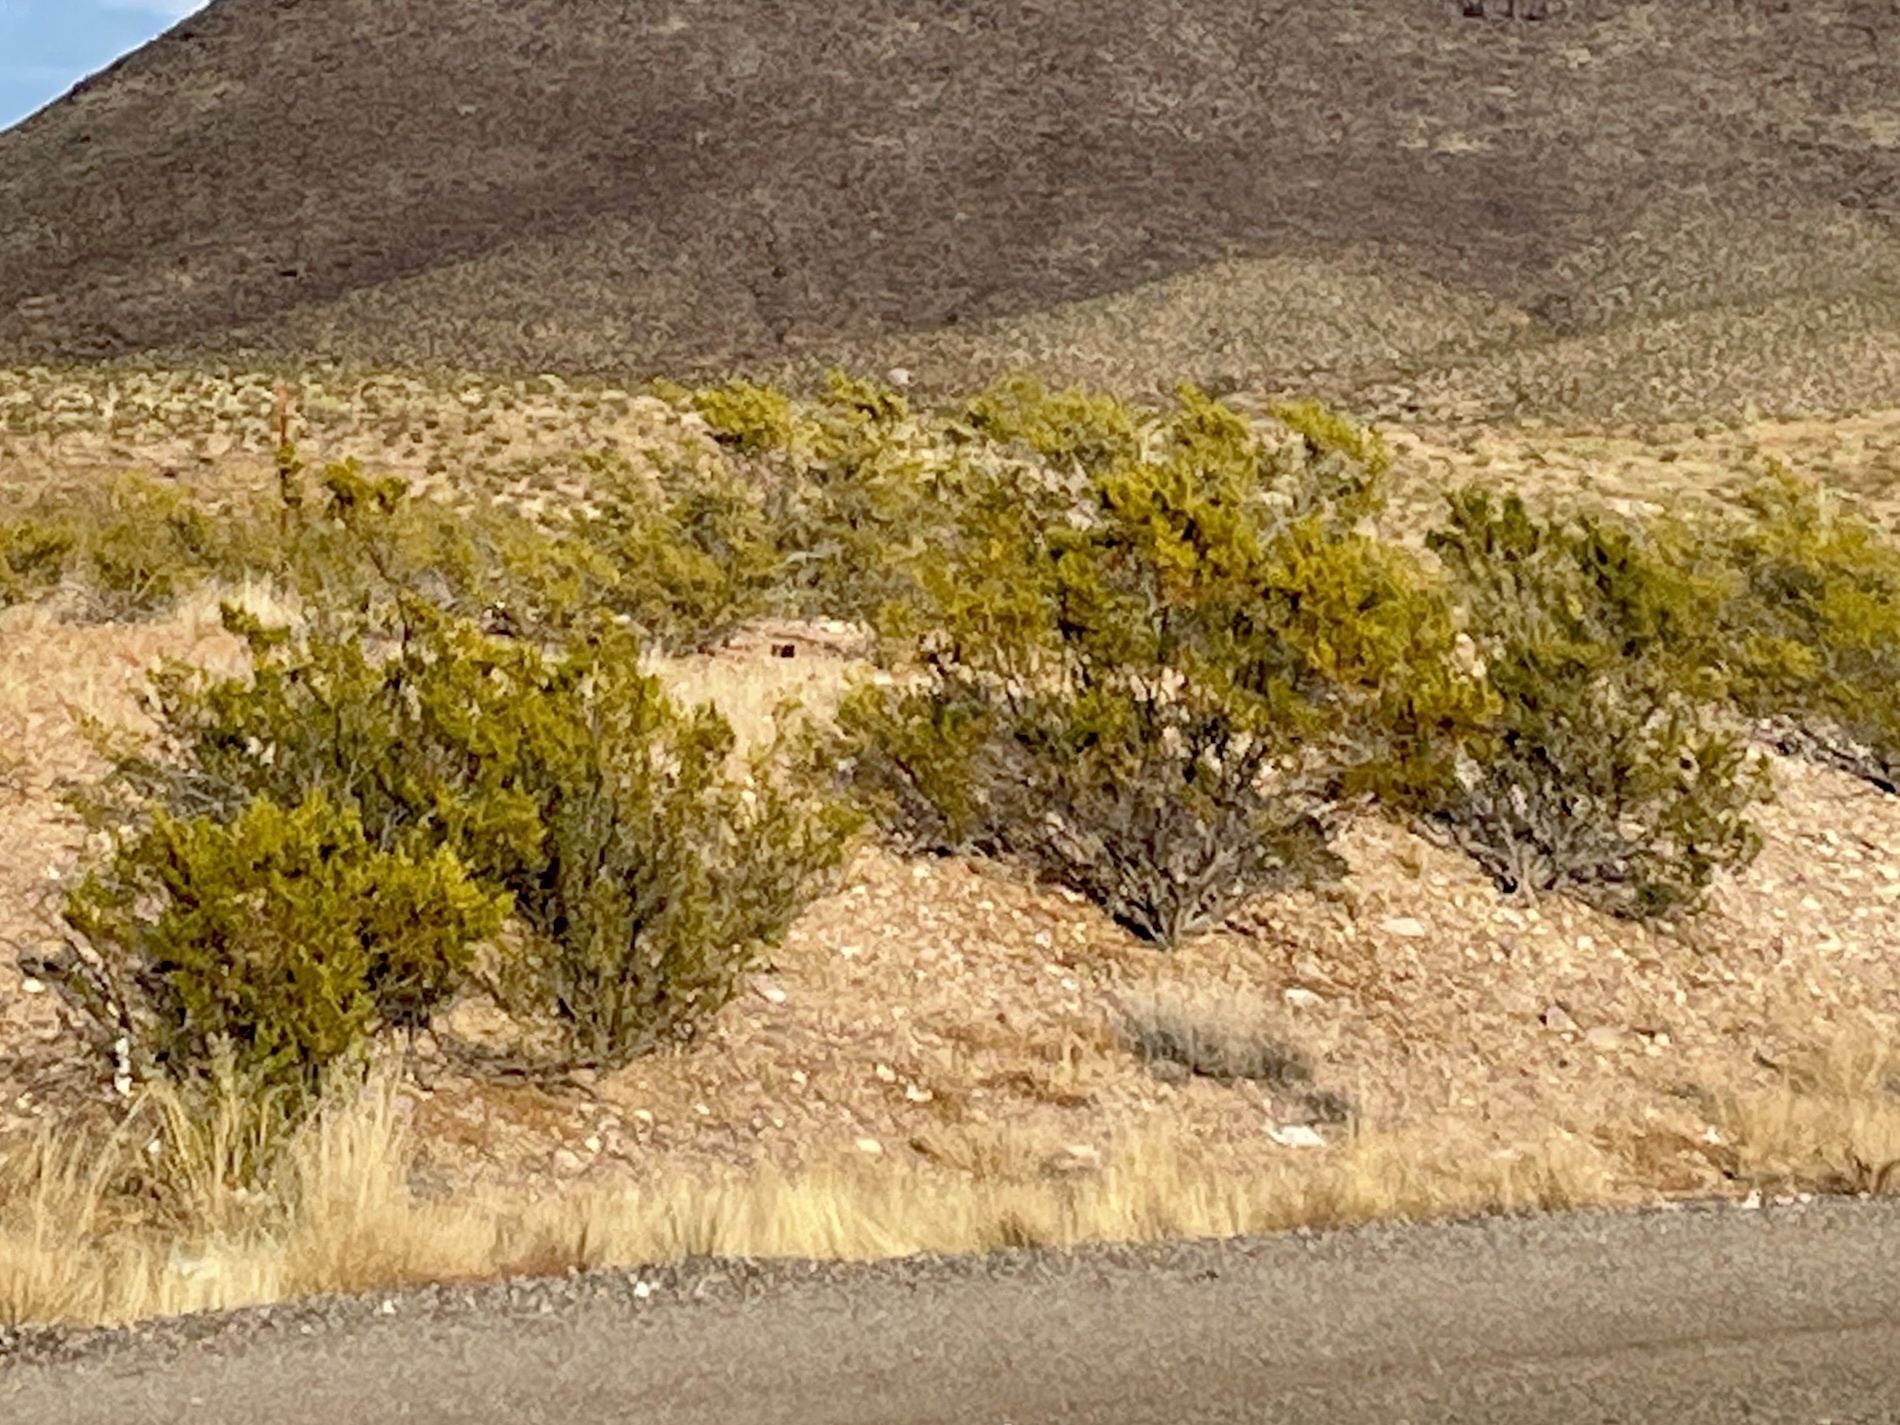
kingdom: Plantae
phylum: Tracheophyta
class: Magnoliopsida
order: Zygophyllales
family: Zygophyllaceae
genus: Larrea
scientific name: Larrea tridentata
